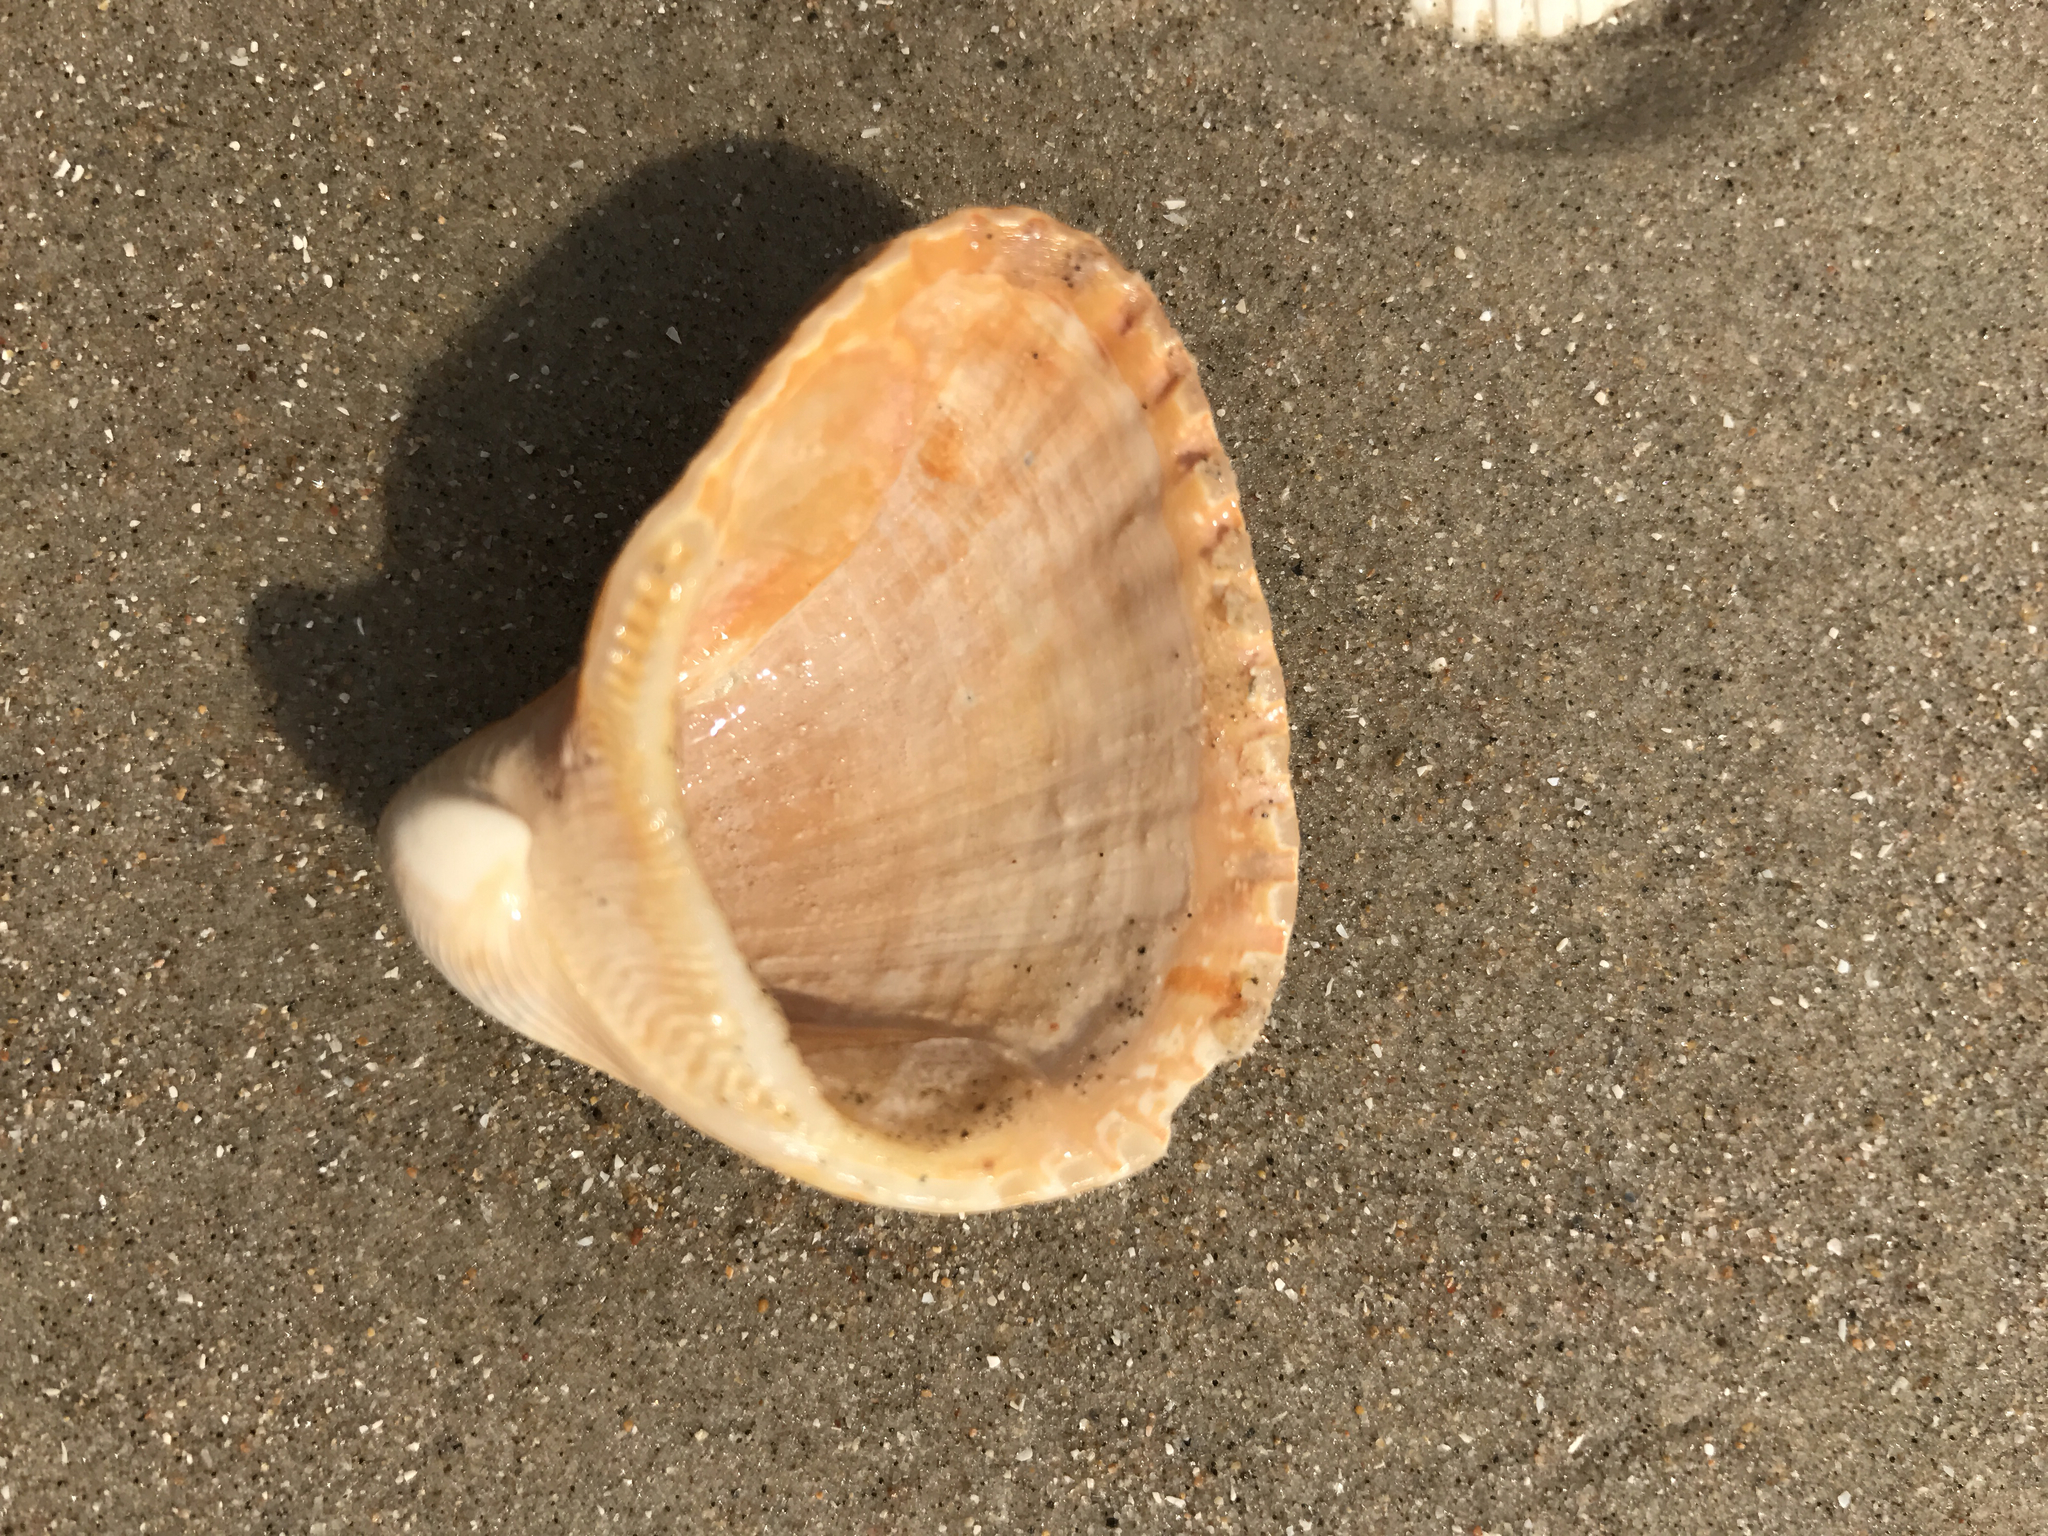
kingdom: Animalia
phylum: Mollusca
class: Bivalvia
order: Arcida
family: Noetiidae
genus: Noetia
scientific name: Noetia ponderosa
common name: Ponderous ark
